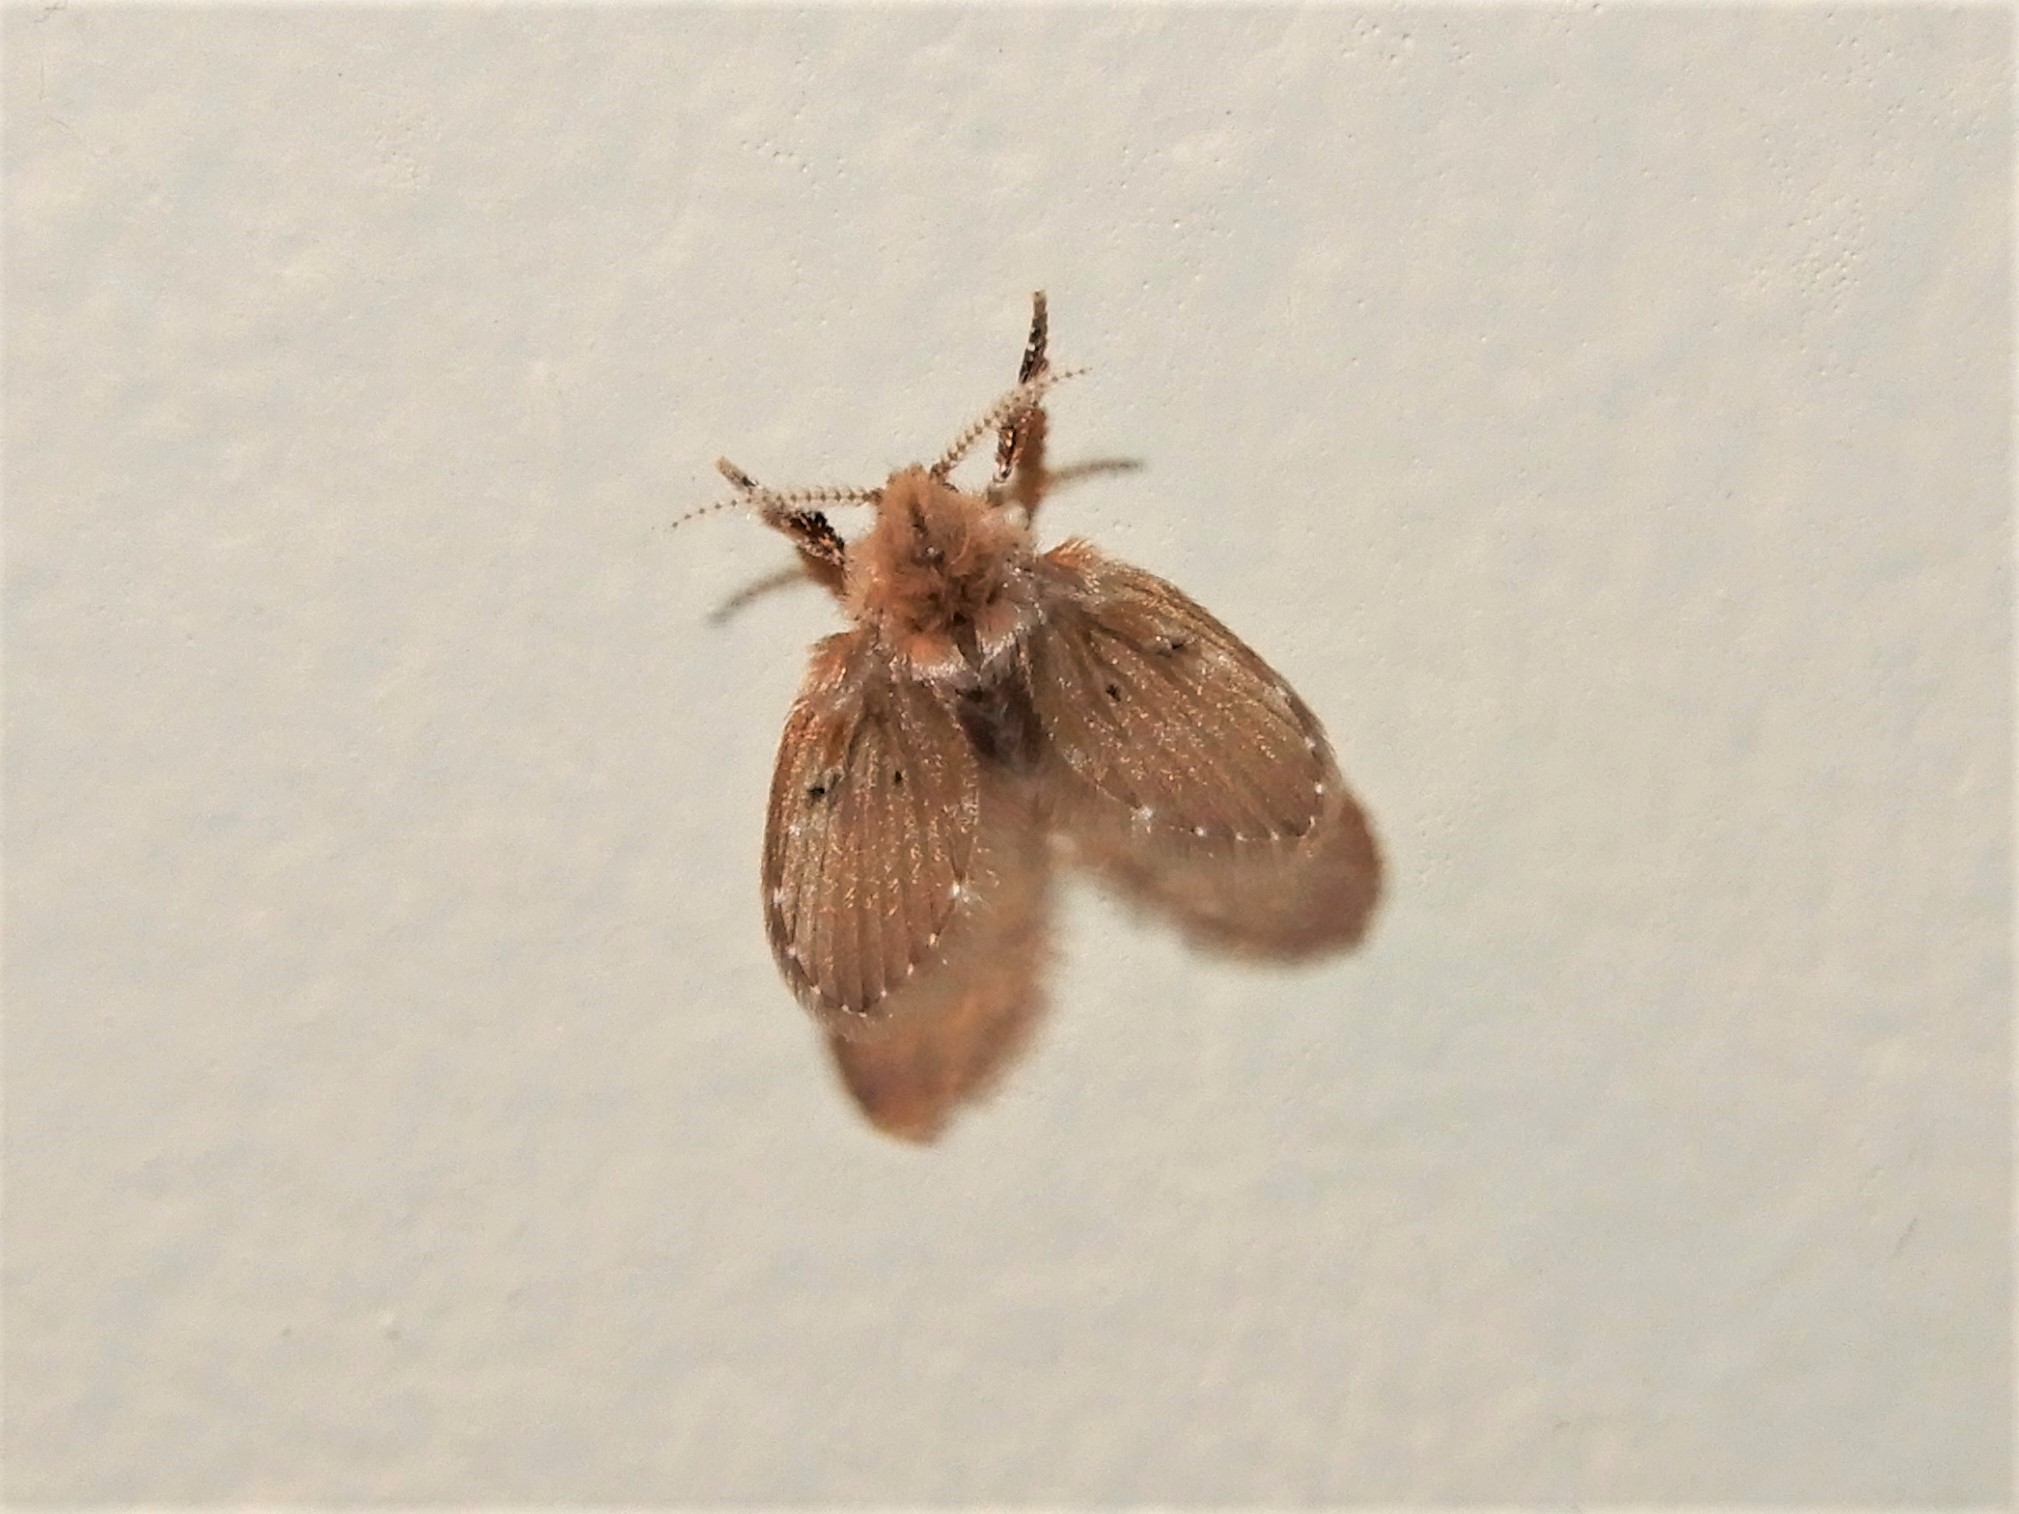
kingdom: Animalia
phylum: Arthropoda
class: Insecta
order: Diptera
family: Psychodidae
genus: Clogmia
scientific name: Clogmia albipunctatus
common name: White-spotted moth fly
